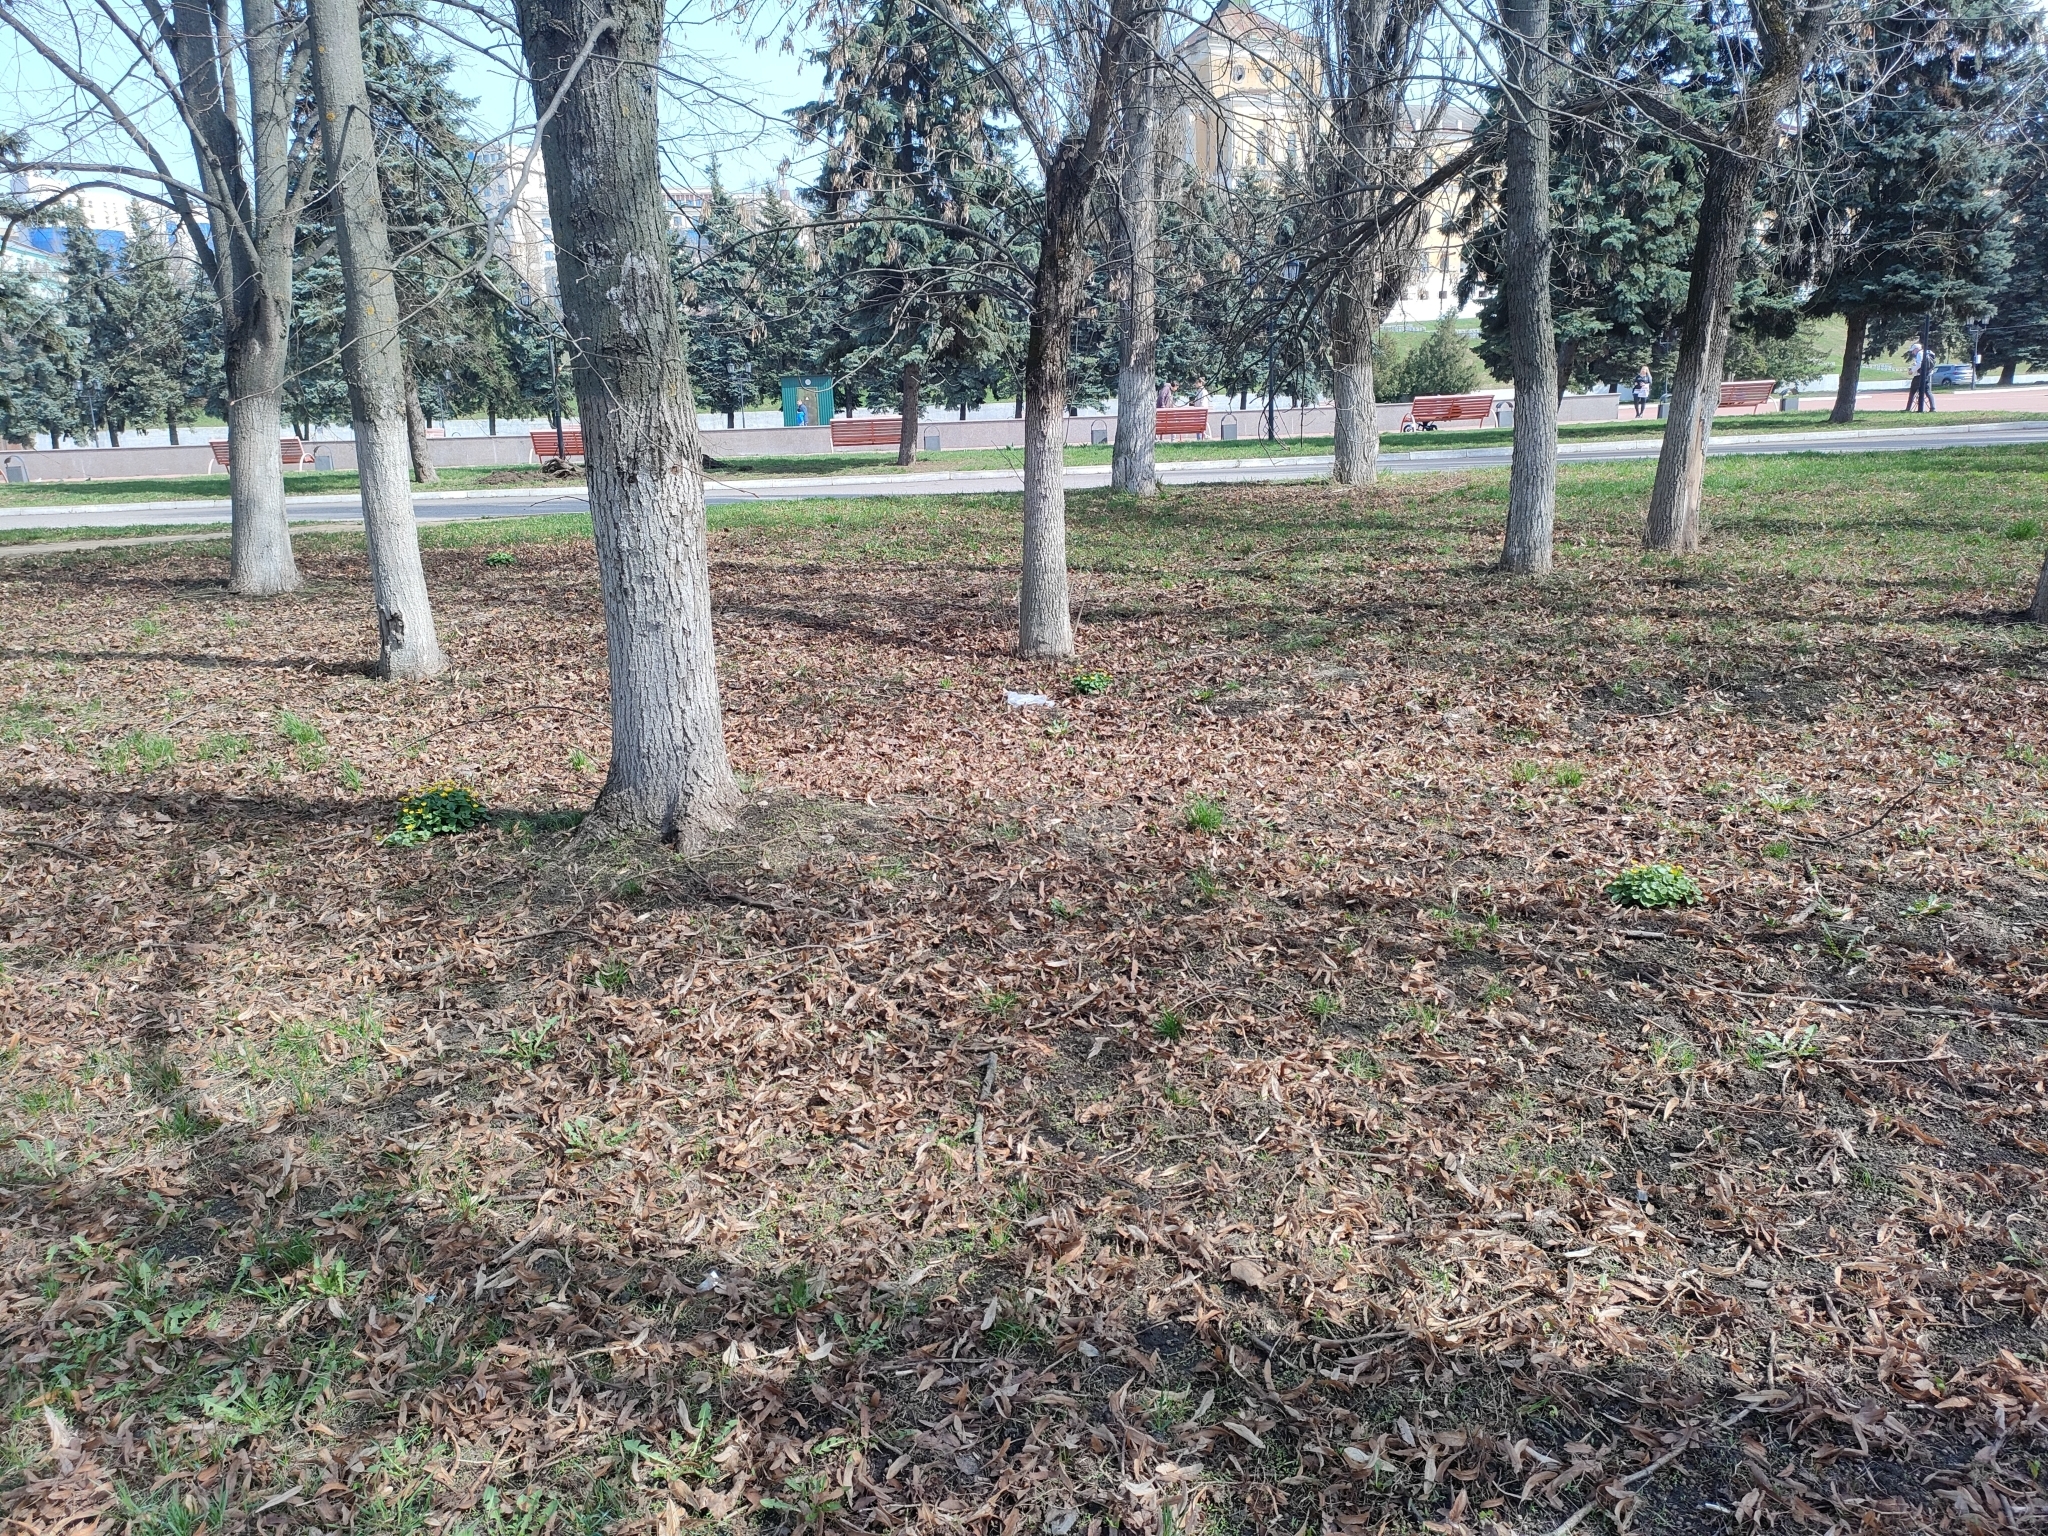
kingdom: Plantae
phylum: Tracheophyta
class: Magnoliopsida
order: Ranunculales
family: Ranunculaceae
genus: Ficaria
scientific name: Ficaria verna
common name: Lesser celandine
